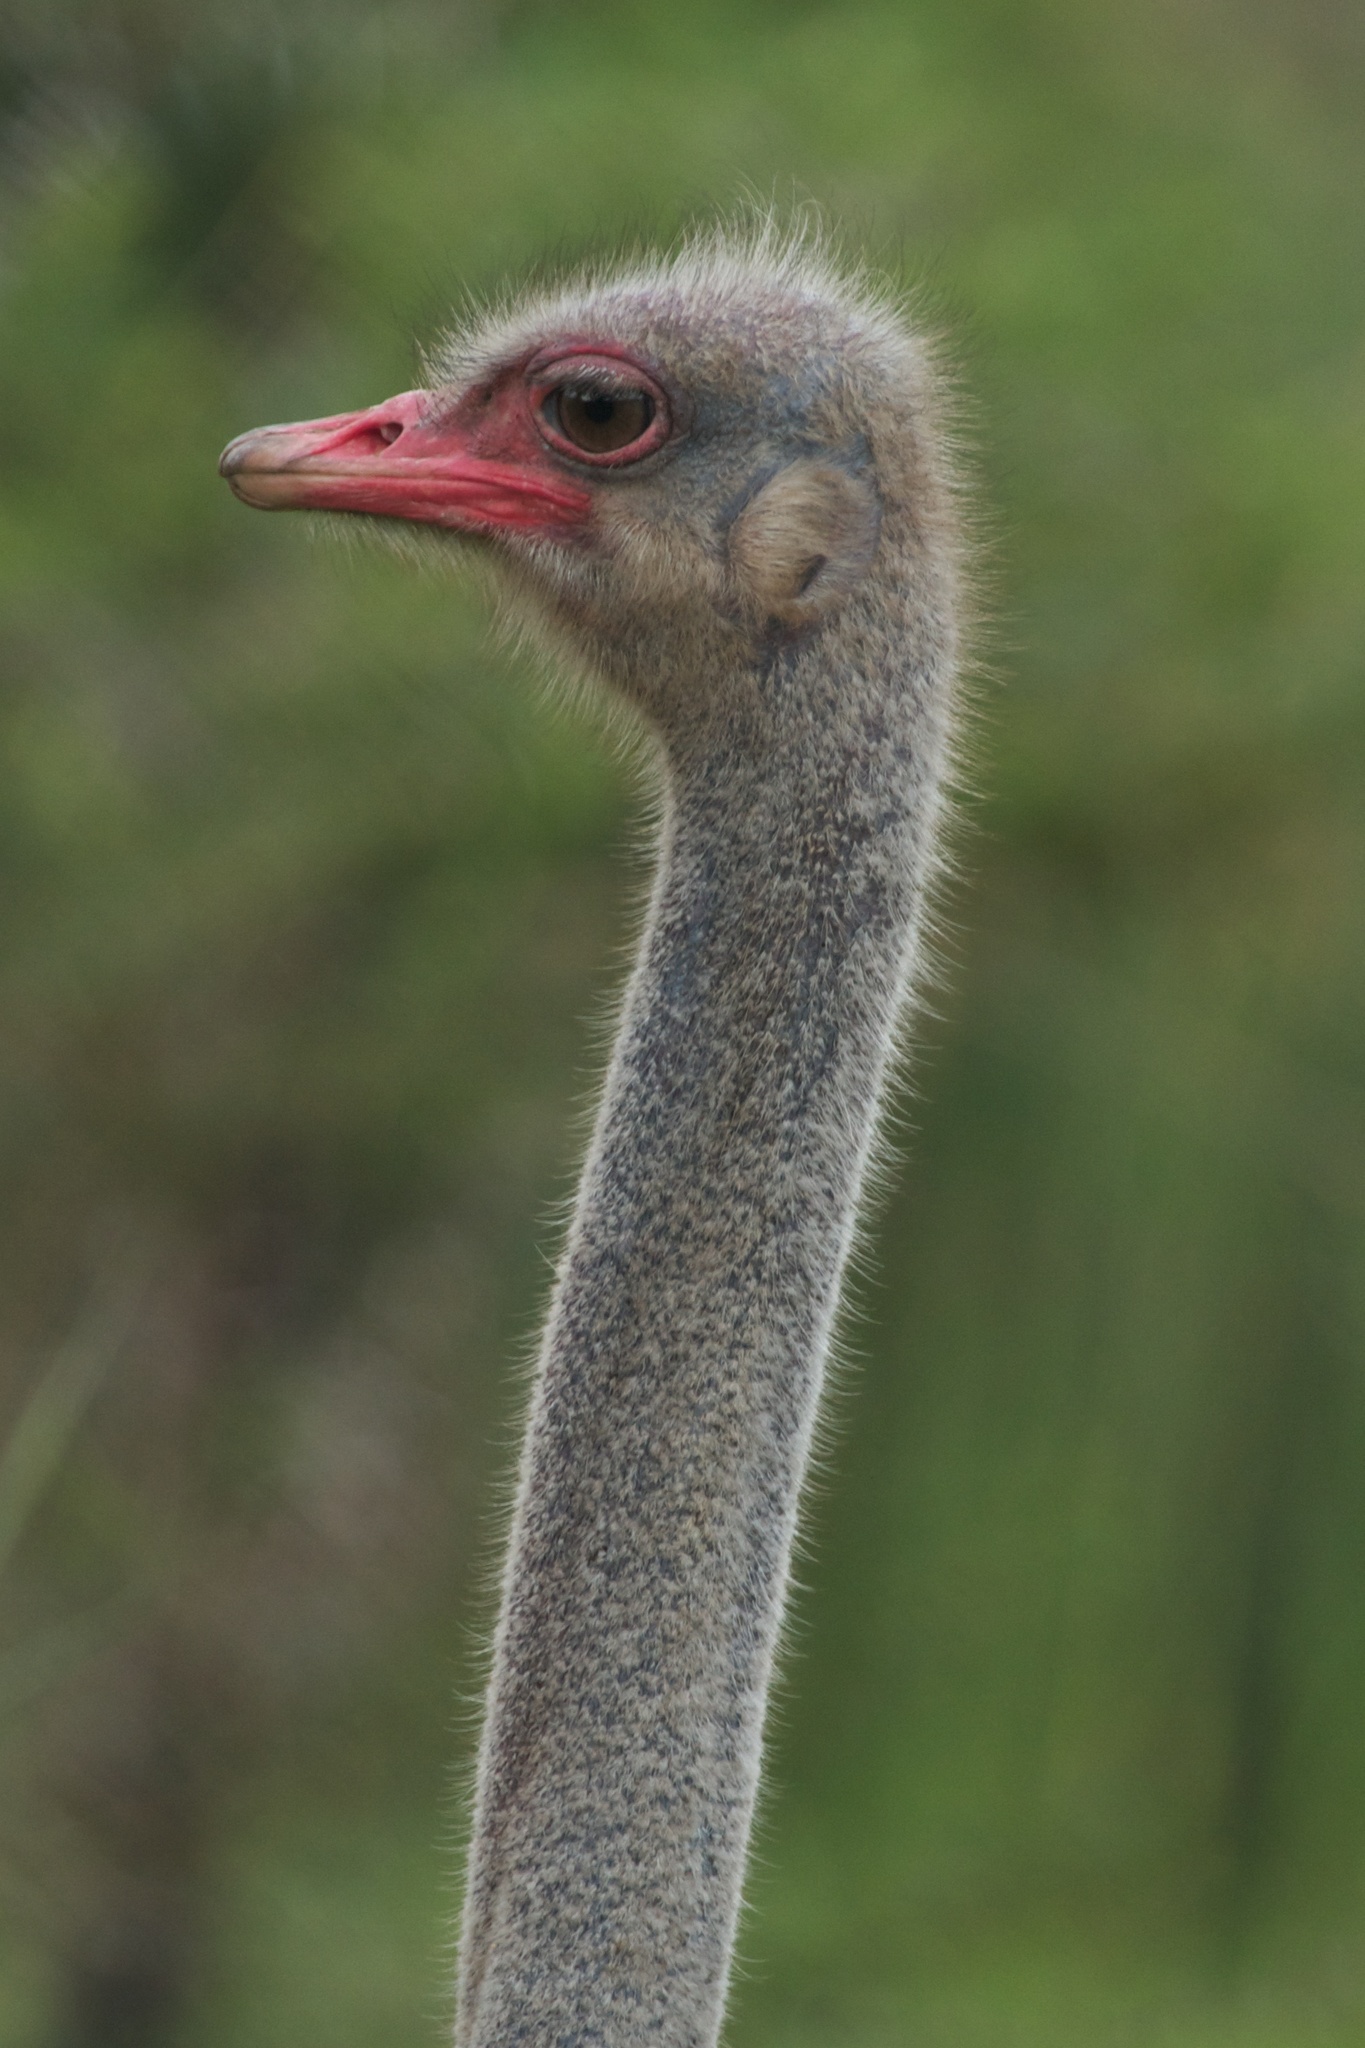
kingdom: Animalia
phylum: Chordata
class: Aves
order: Struthioniformes
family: Struthionidae
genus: Struthio
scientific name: Struthio camelus
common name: Common ostrich
